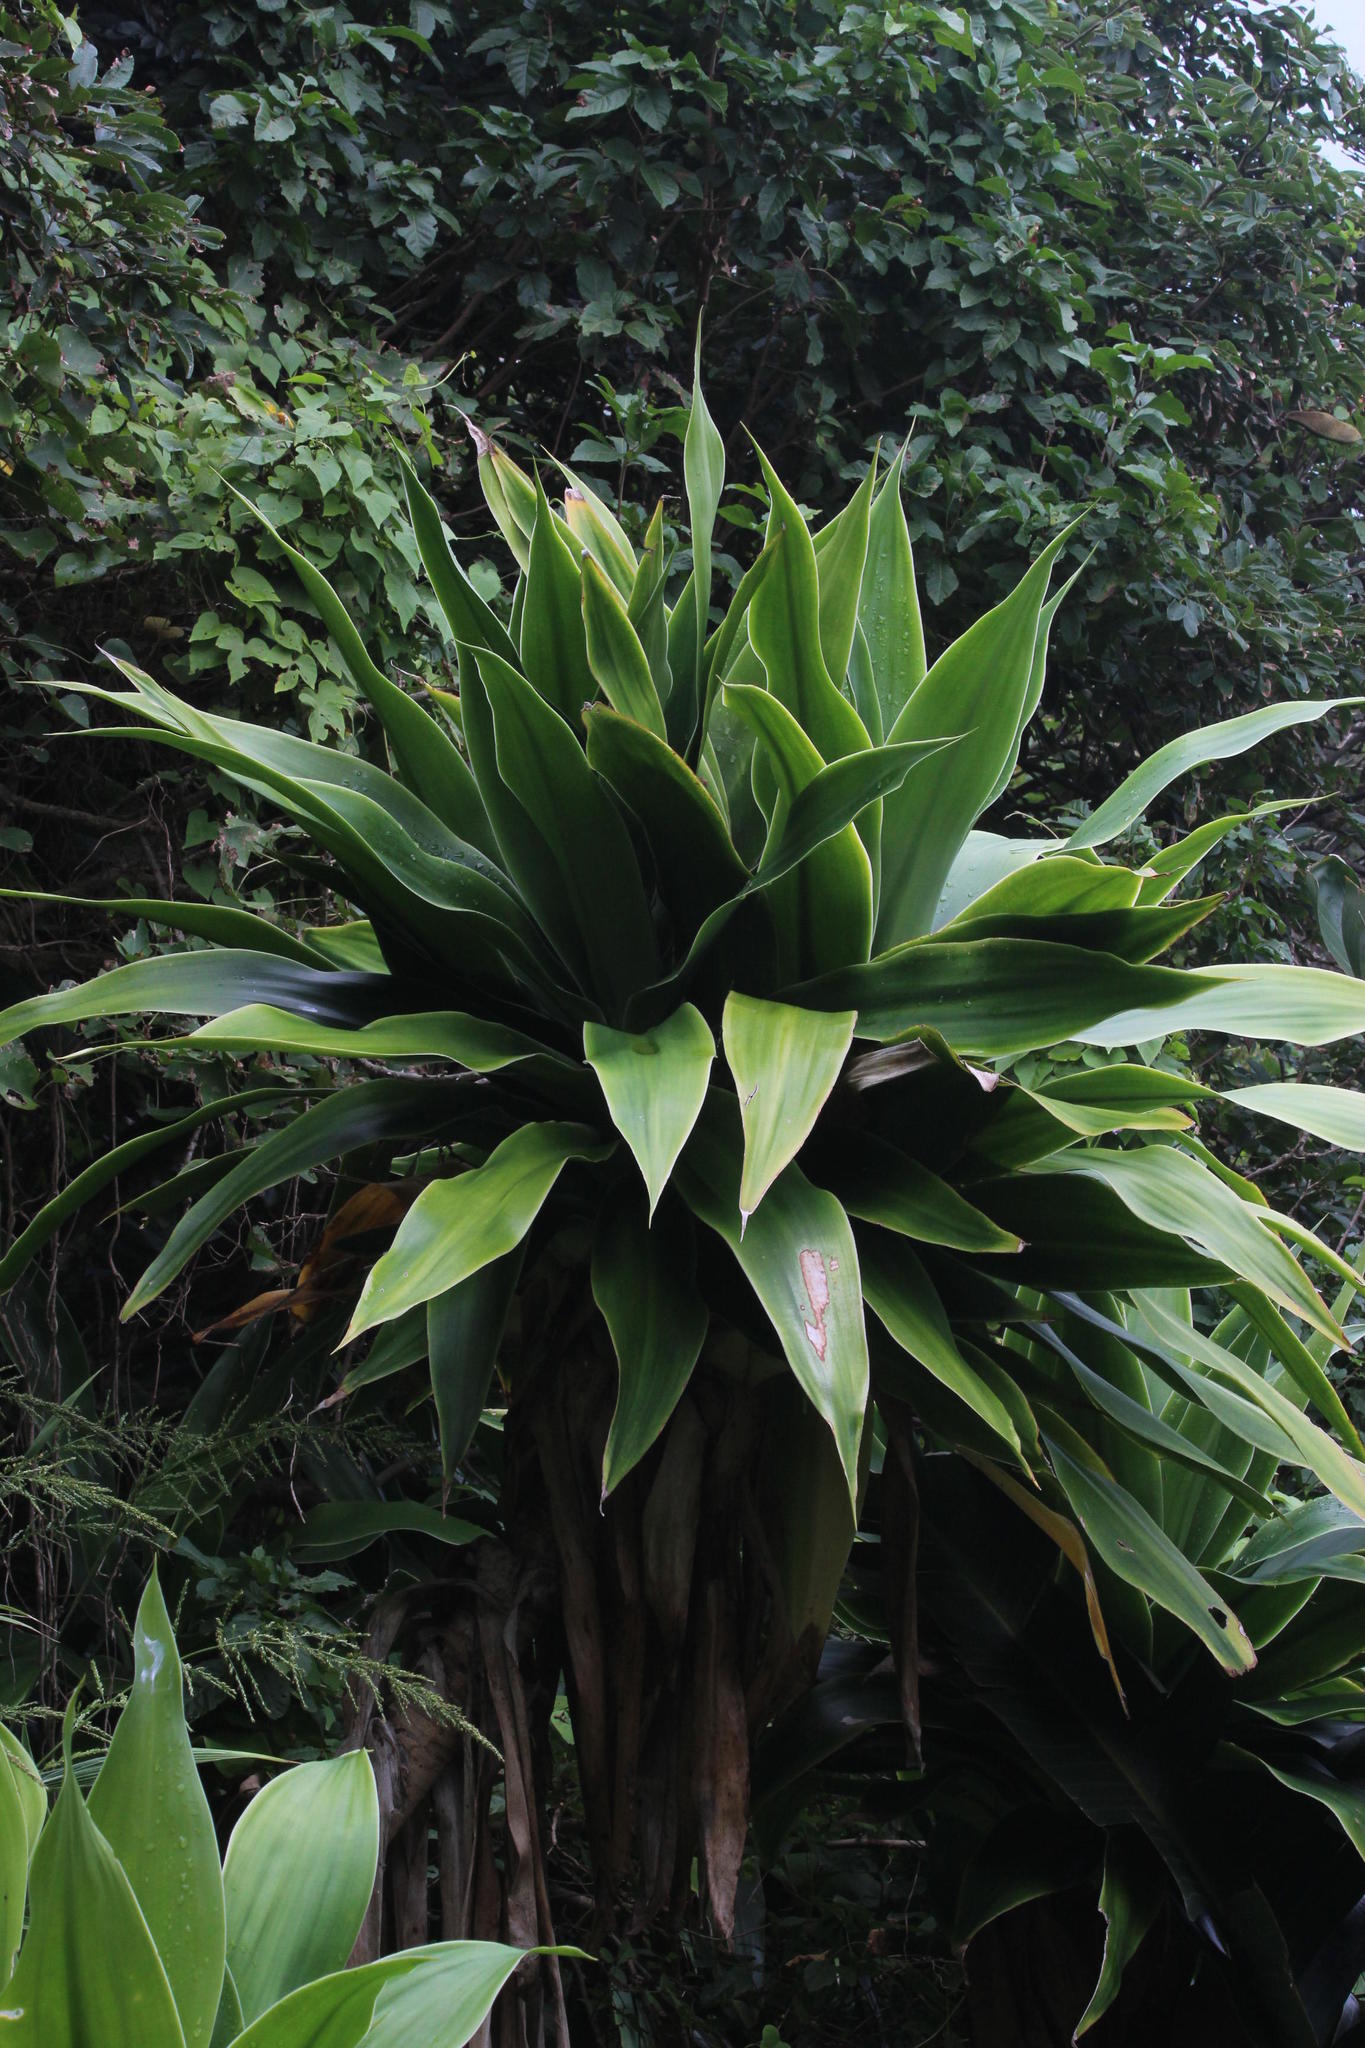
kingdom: Plantae
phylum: Tracheophyta
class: Liliopsida
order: Asparagales
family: Asparagaceae
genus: Dracaena
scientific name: Dracaena aletriformis
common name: Large-leaved dragon tree
